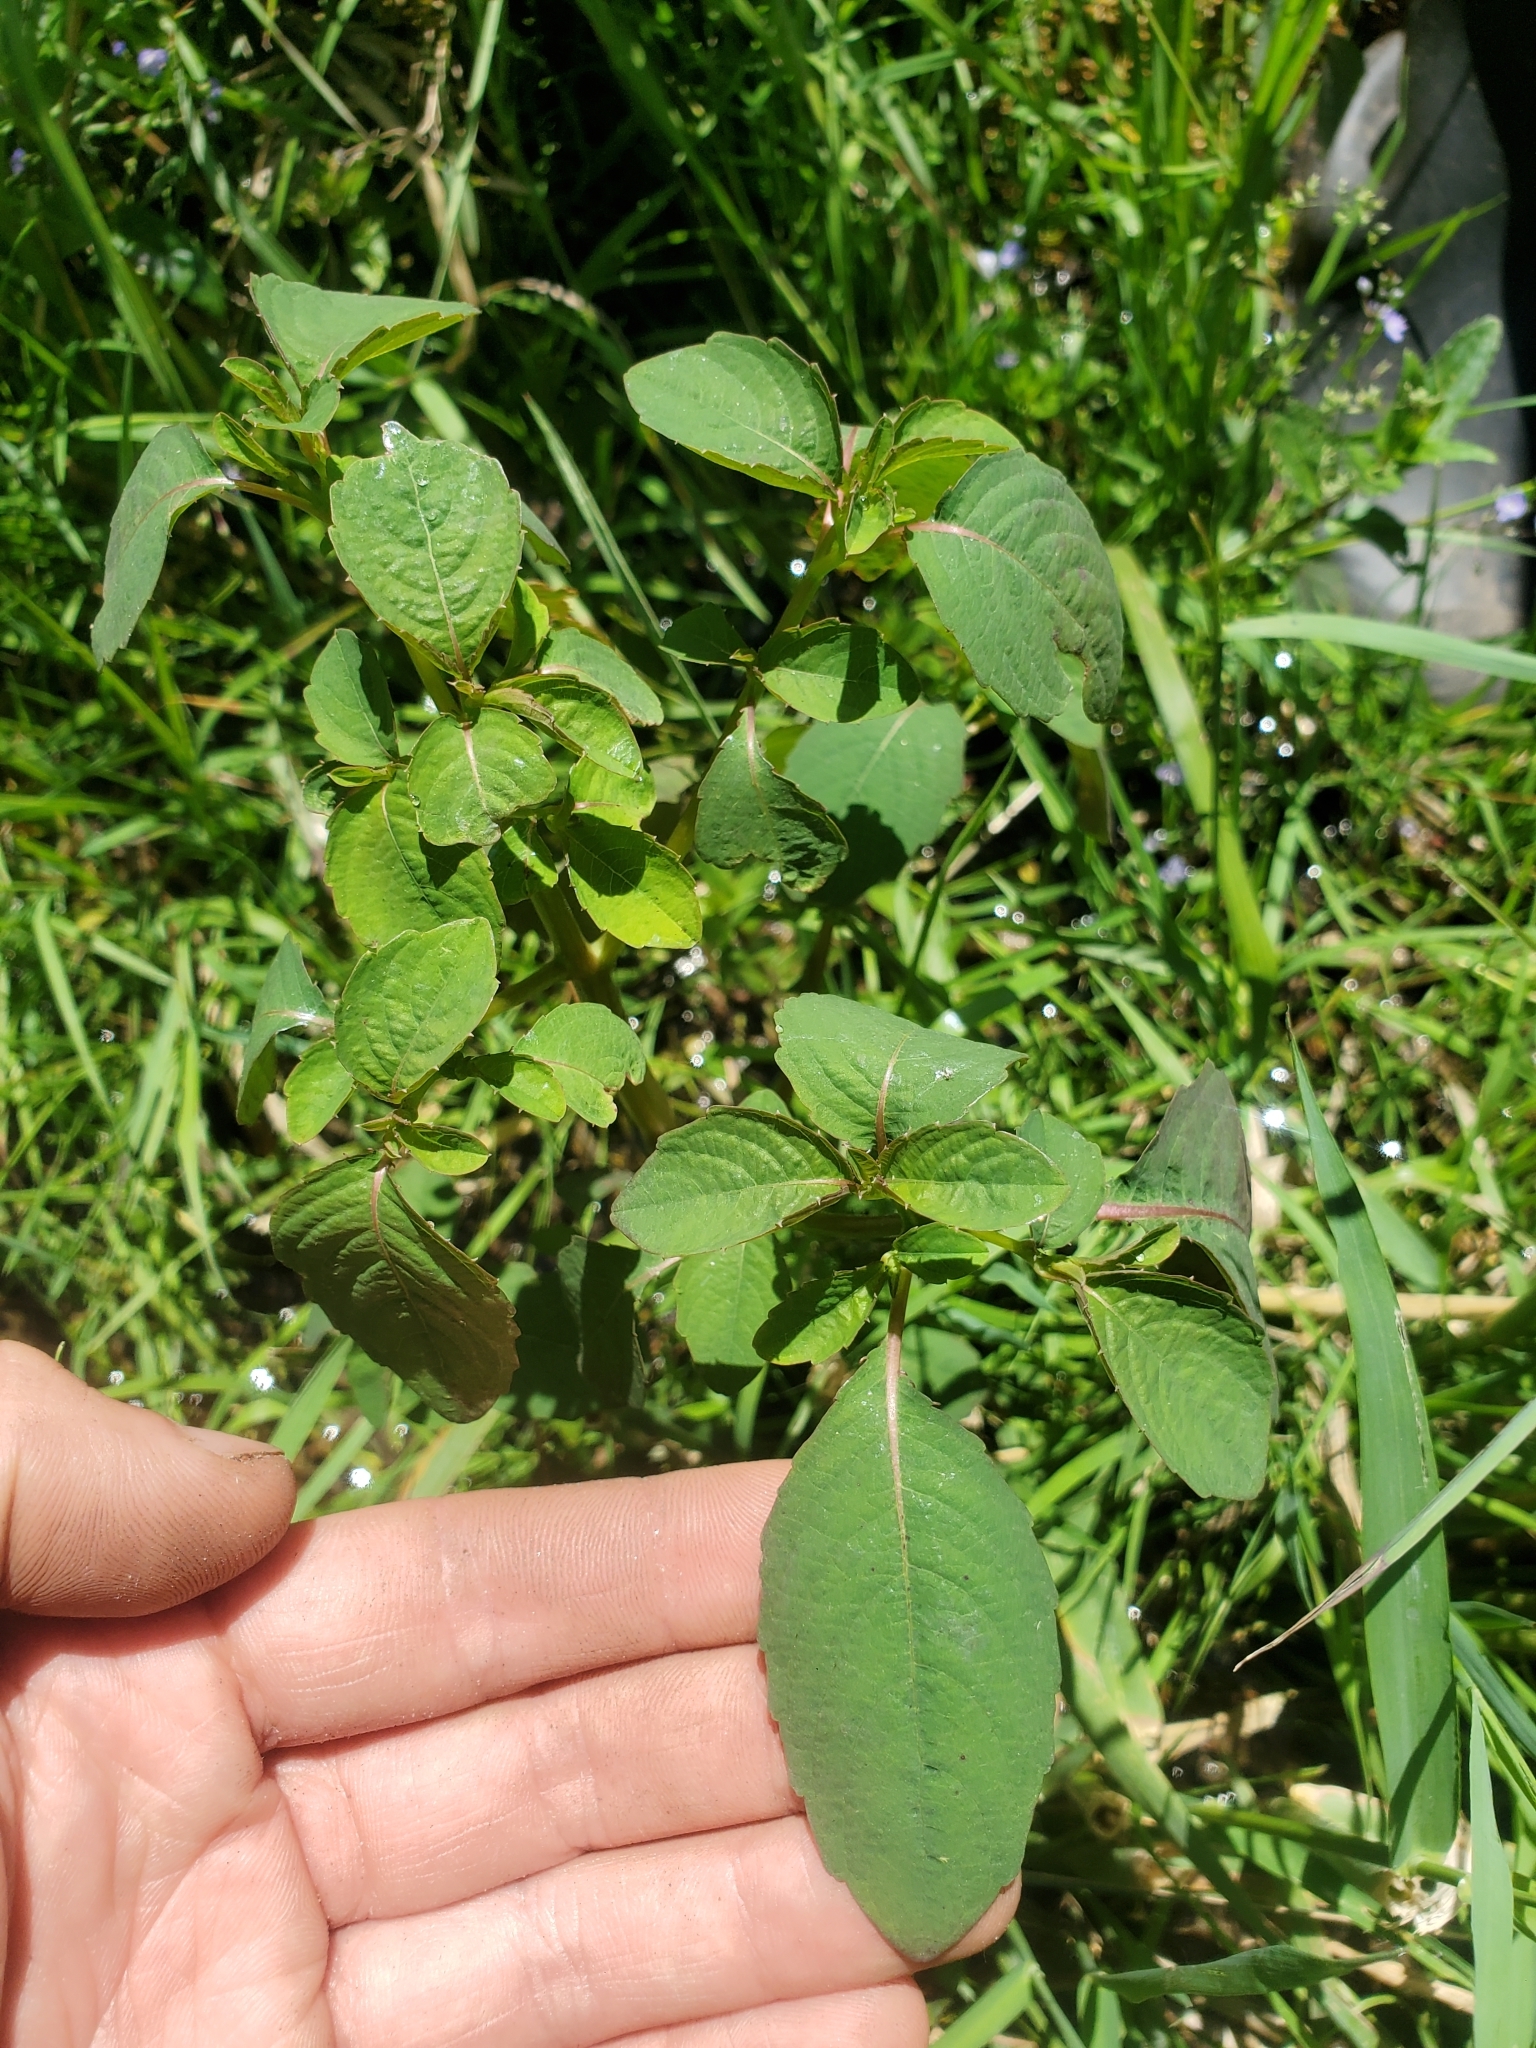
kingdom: Plantae
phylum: Tracheophyta
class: Magnoliopsida
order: Ericales
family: Balsaminaceae
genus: Impatiens
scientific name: Impatiens capensis
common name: Orange balsam
